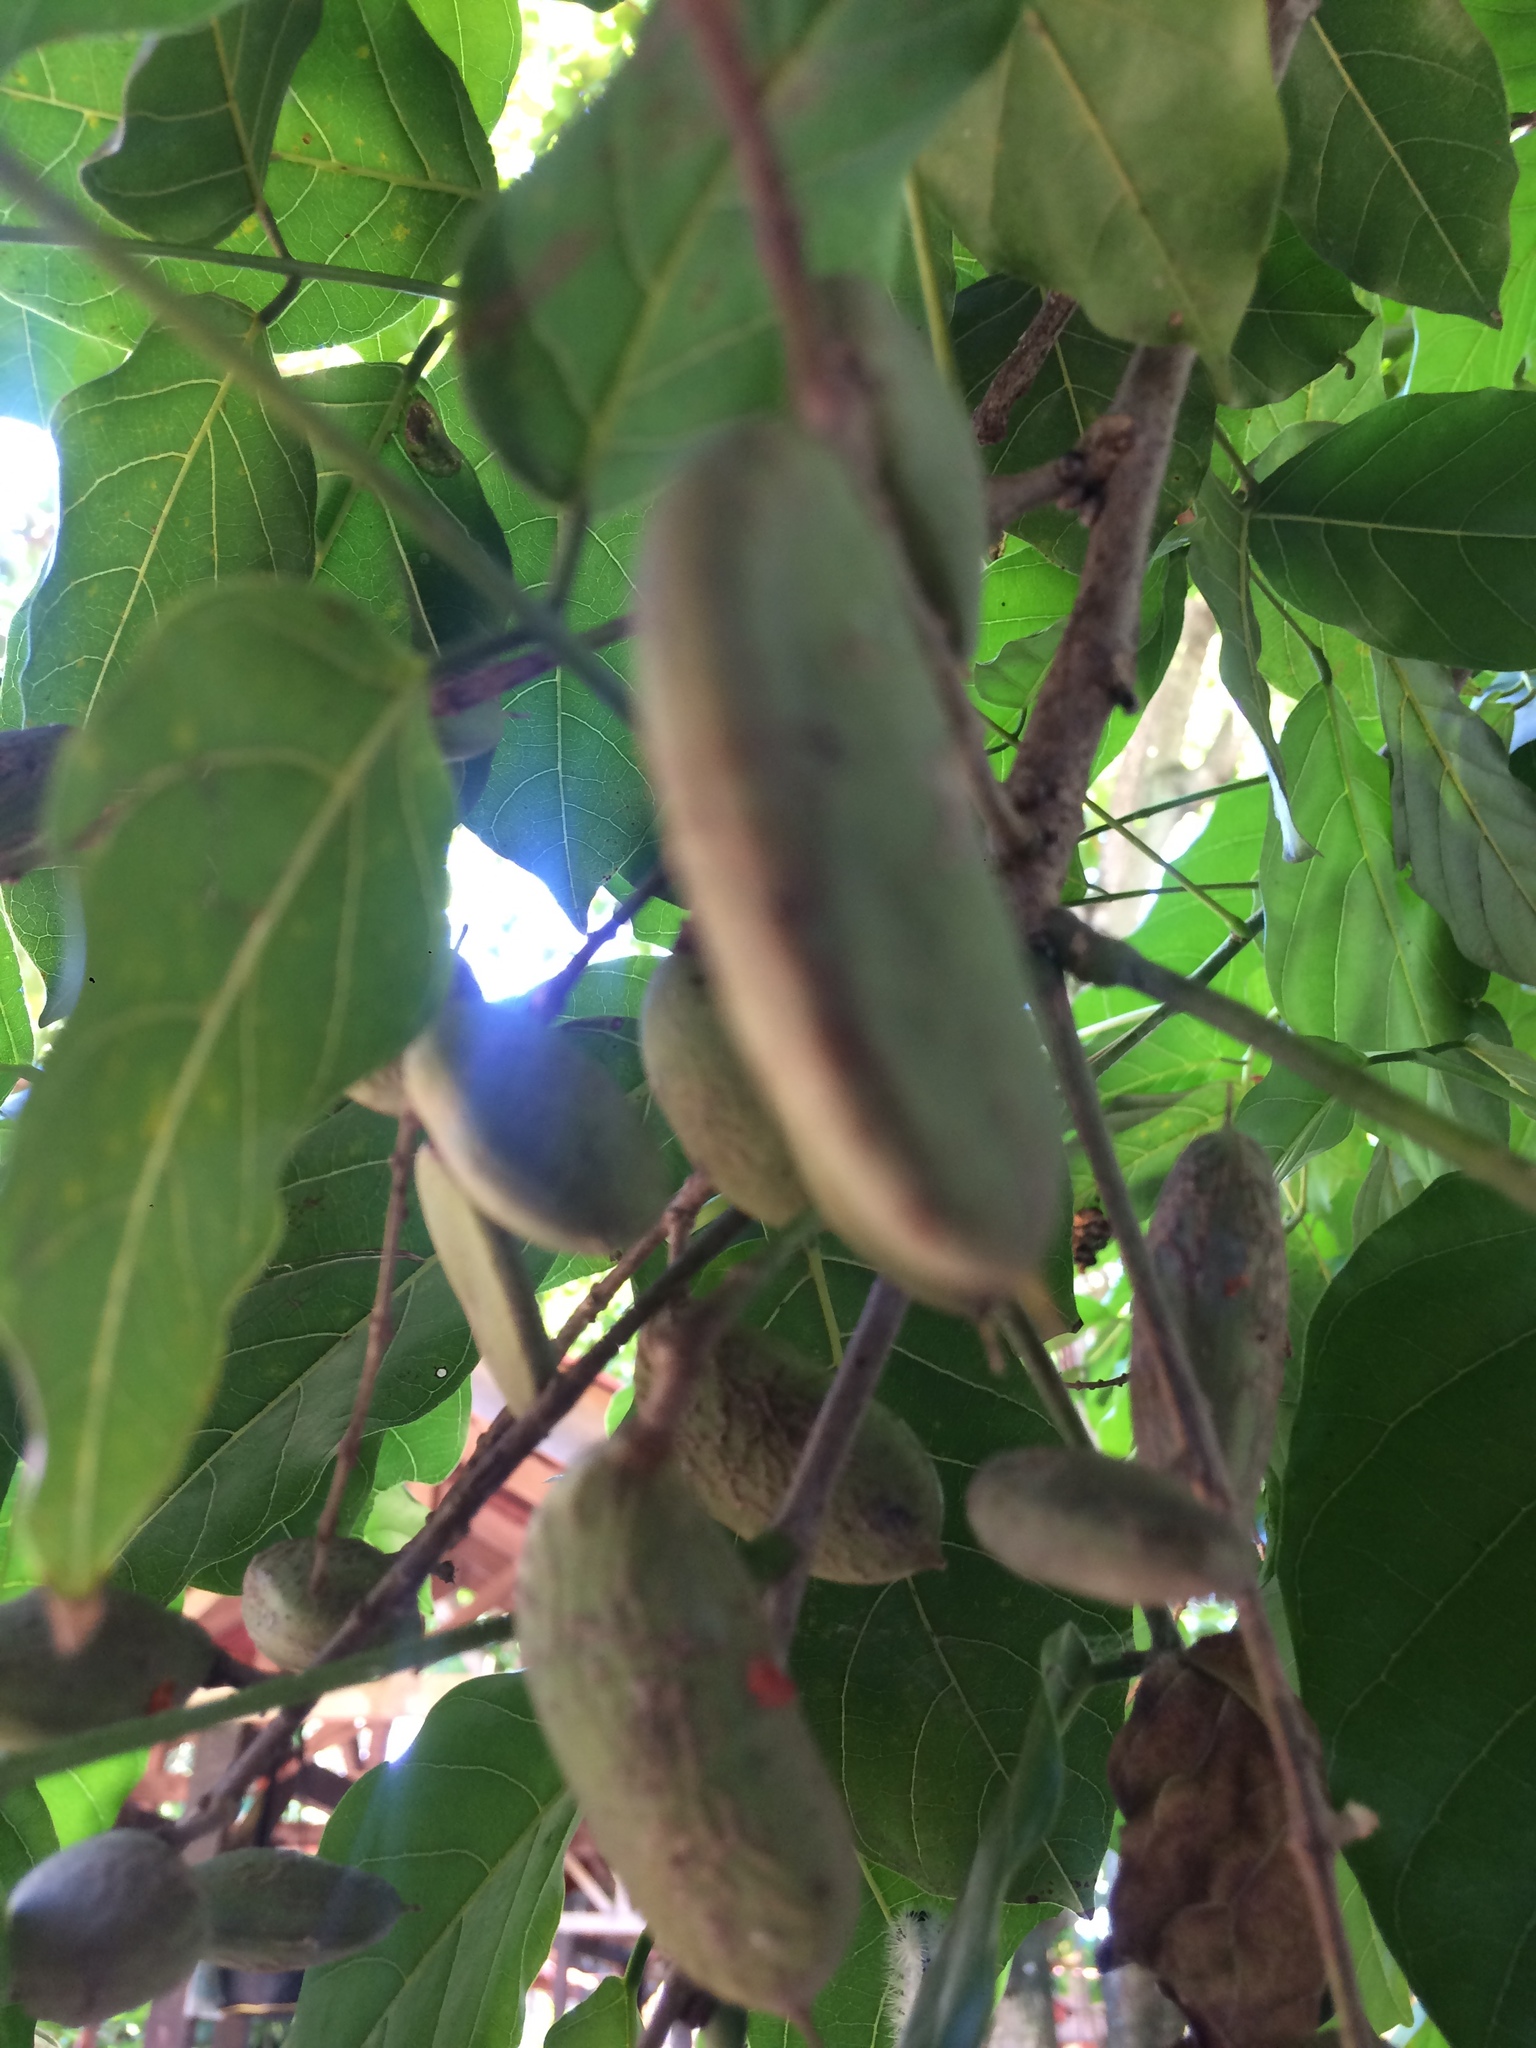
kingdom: Plantae
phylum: Tracheophyta
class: Magnoliopsida
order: Fabales
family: Fabaceae
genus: Pongamia
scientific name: Pongamia pinnata
